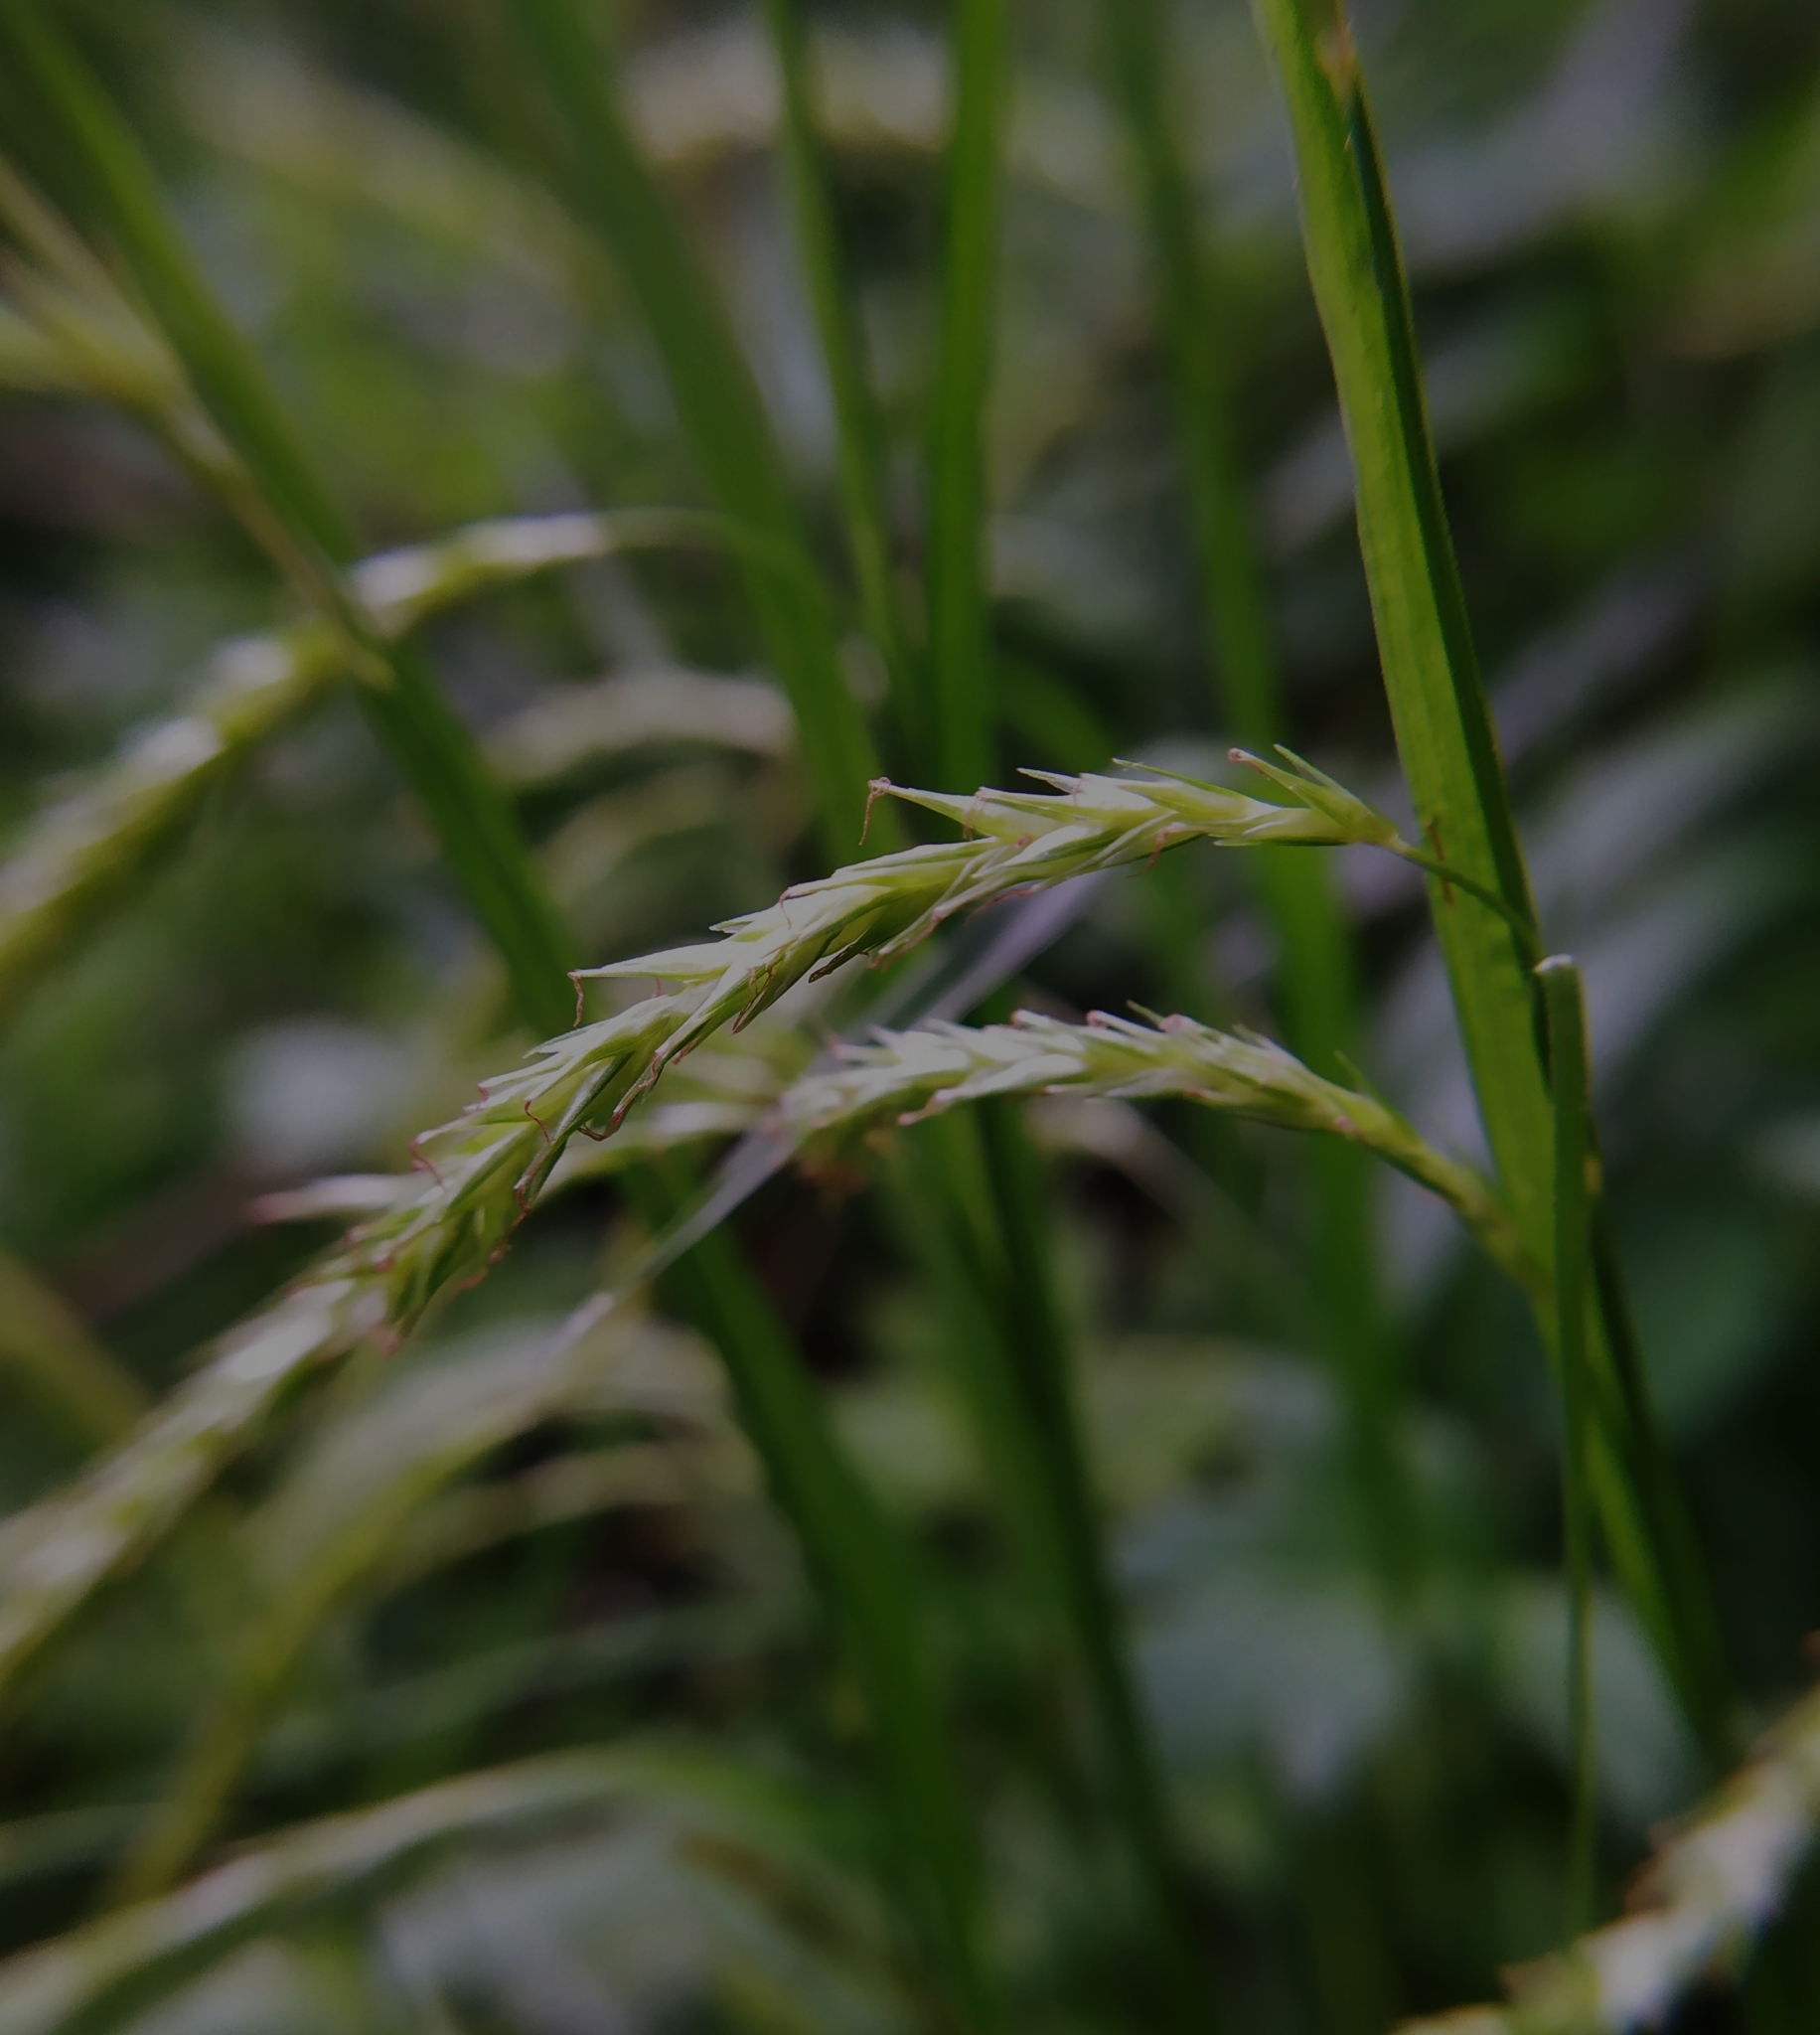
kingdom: Plantae
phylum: Tracheophyta
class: Liliopsida
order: Poales
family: Cyperaceae
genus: Carex
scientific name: Carex sylvatica
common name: Wood-sedge
